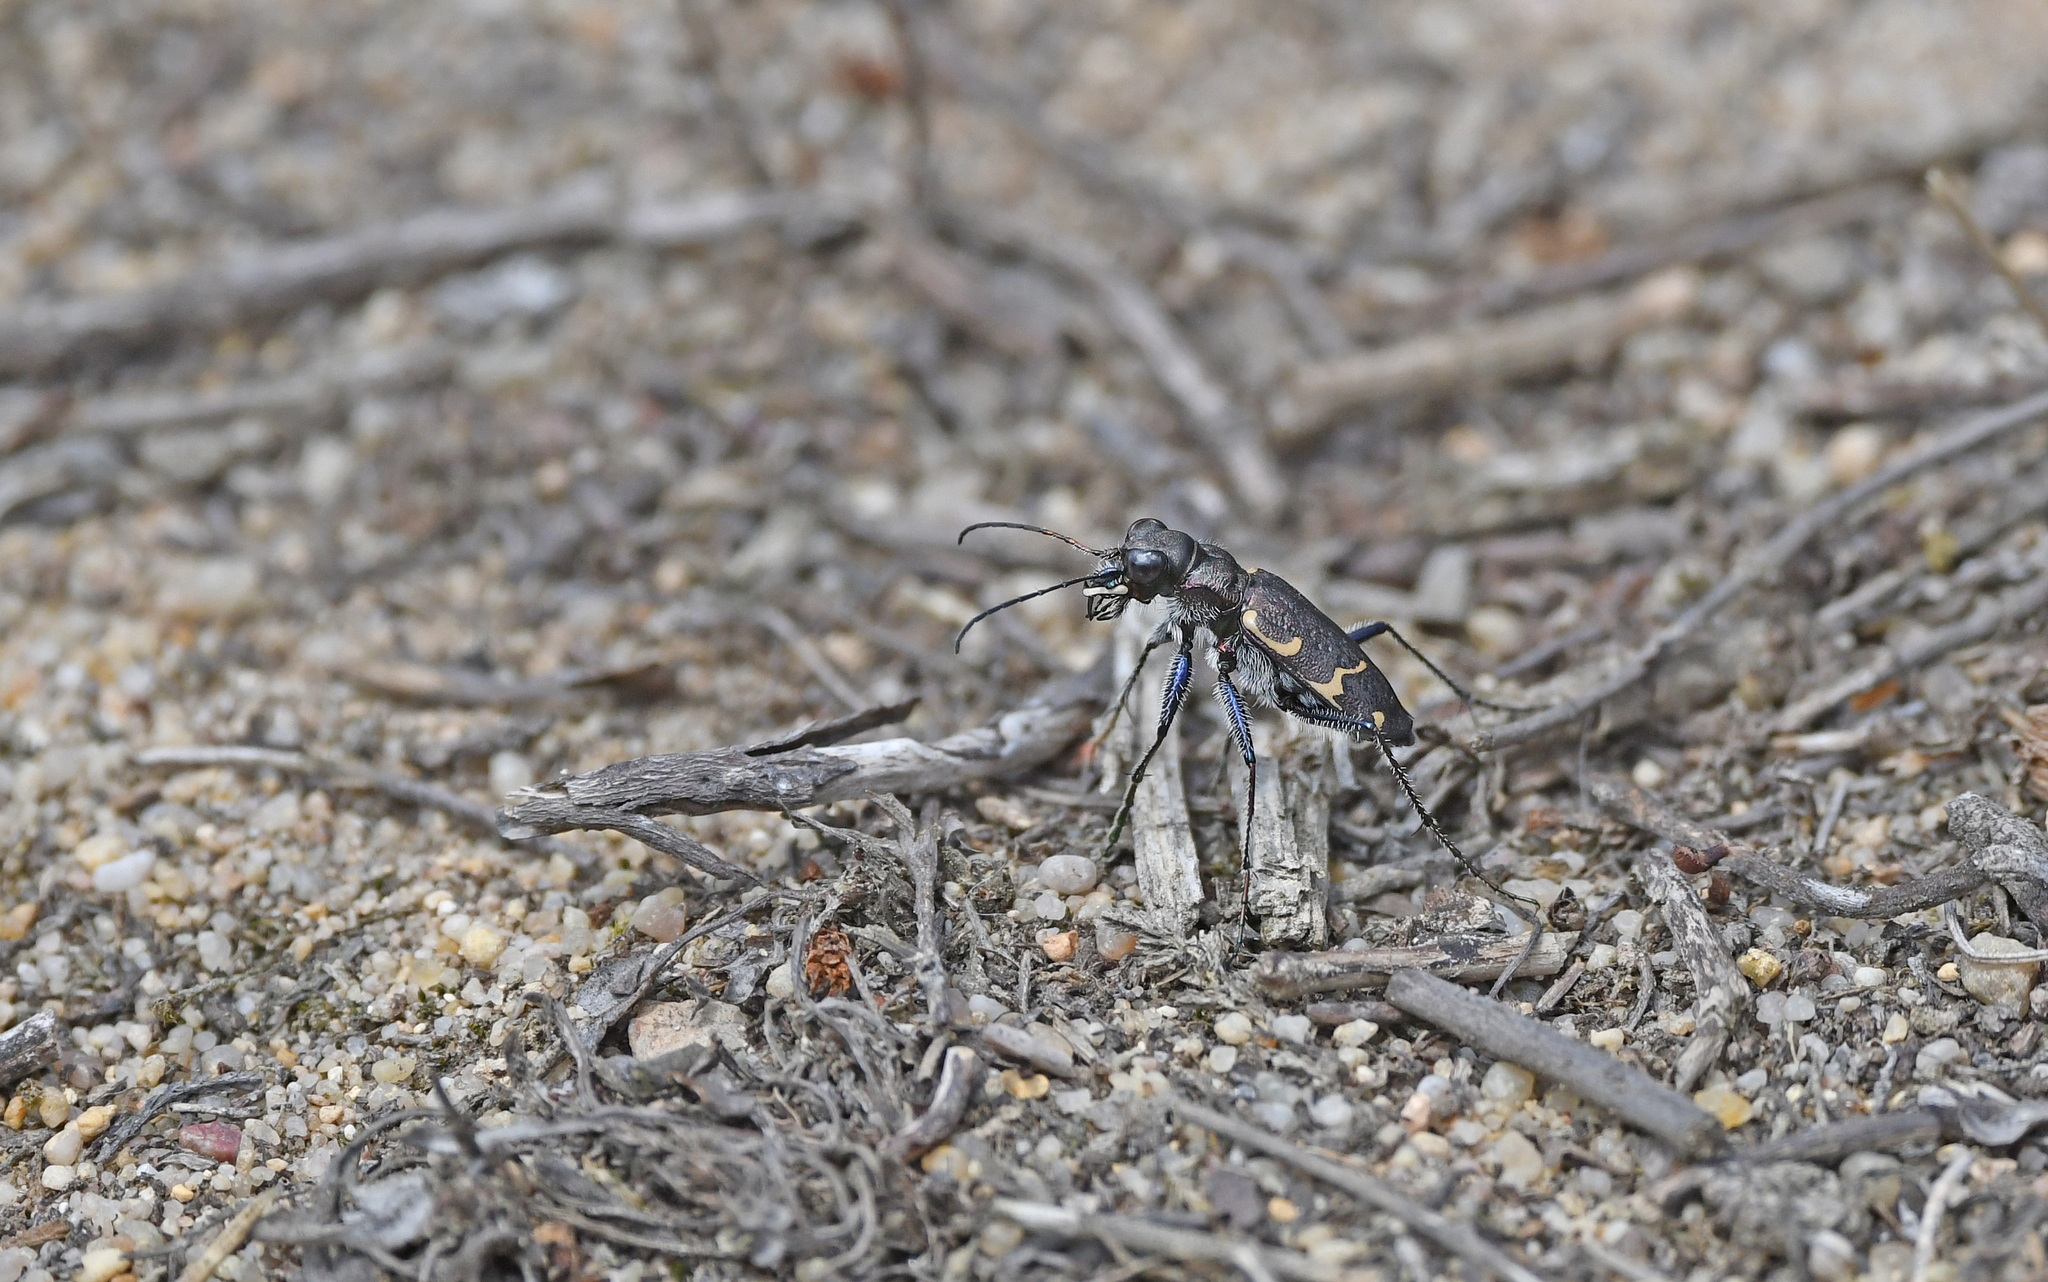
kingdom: Animalia
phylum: Arthropoda
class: Insecta
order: Coleoptera
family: Carabidae
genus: Cicindela
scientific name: Cicindela sylvatica
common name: Heath tiger beetle
